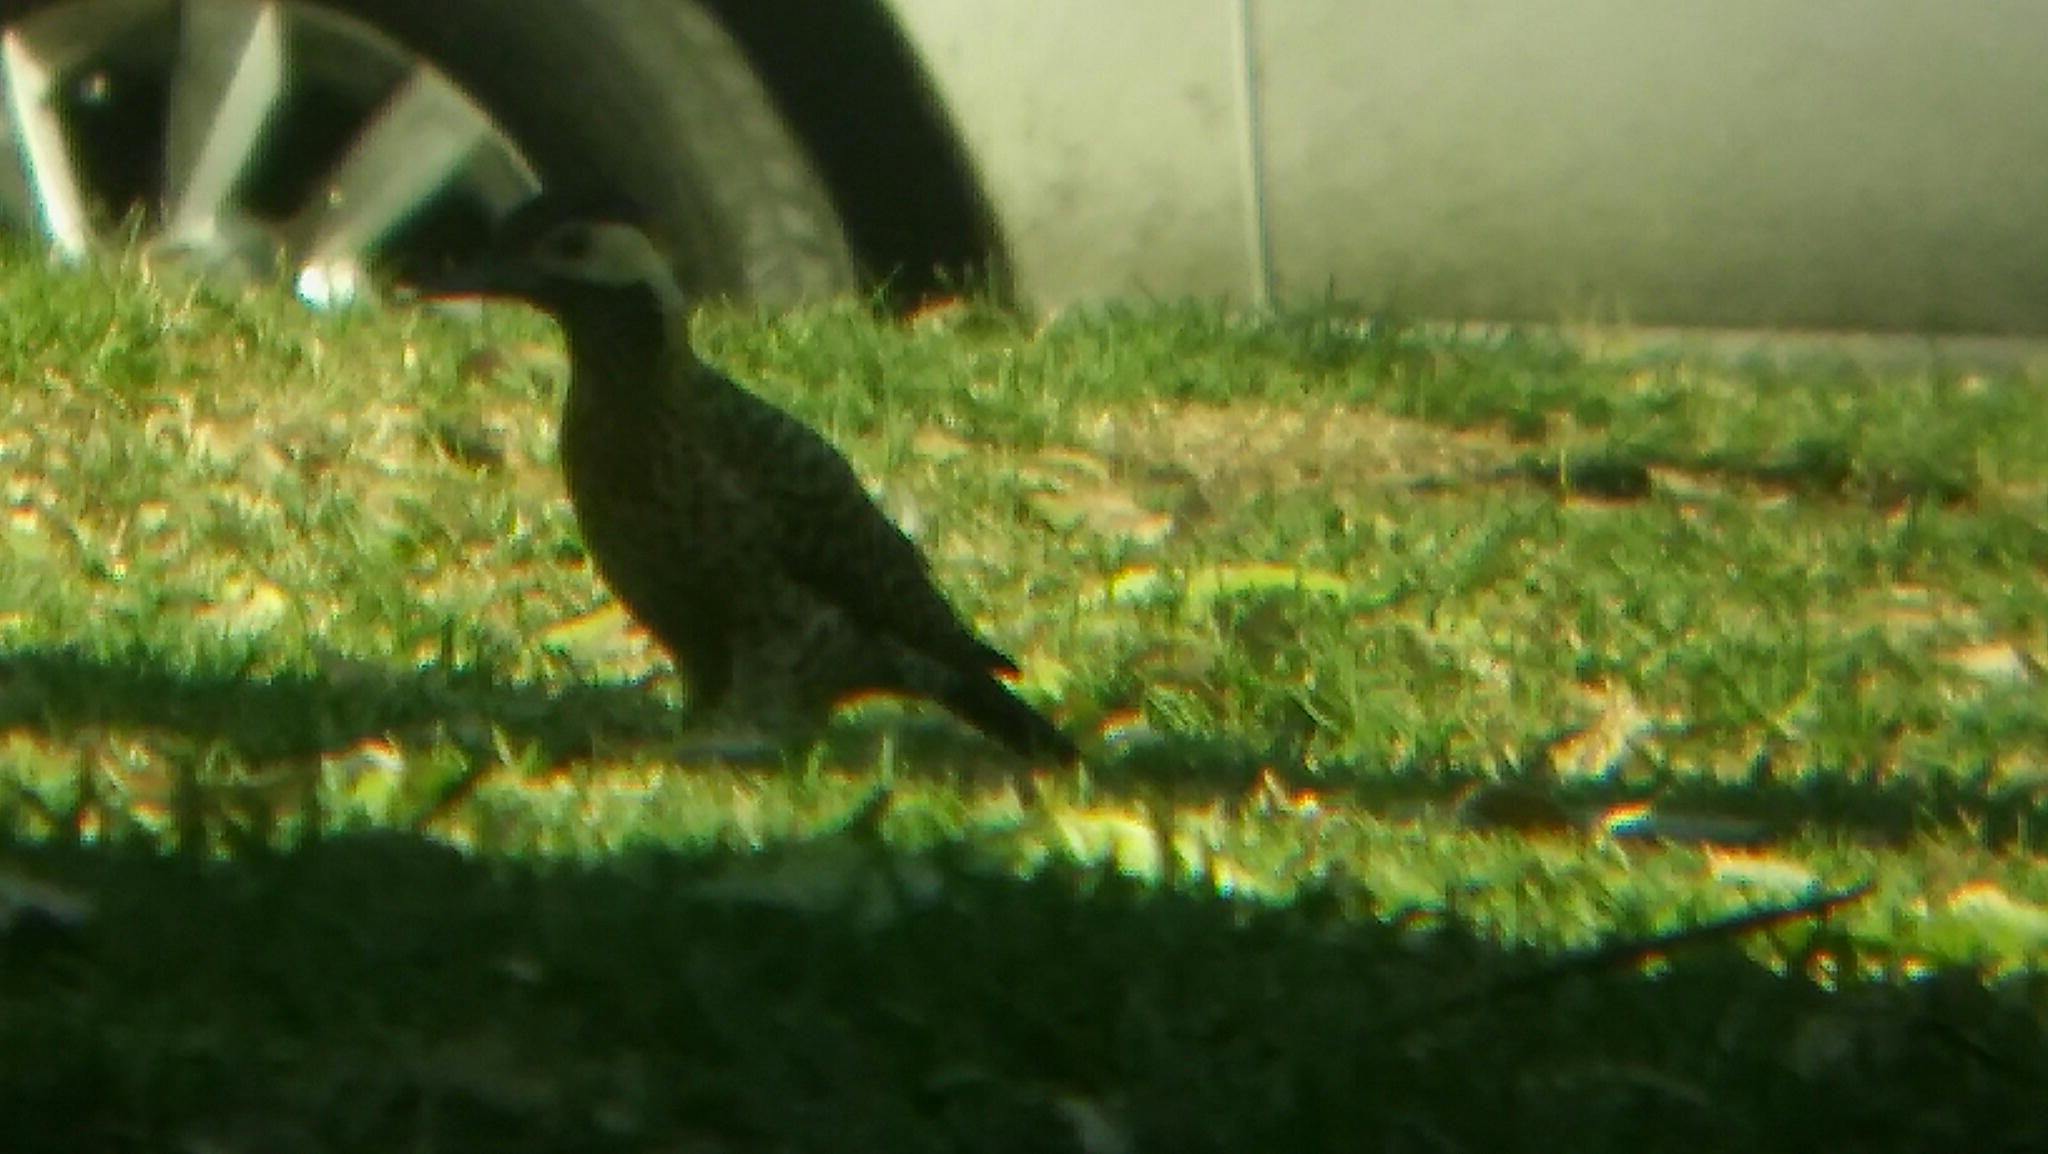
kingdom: Animalia
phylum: Chordata
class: Aves
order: Piciformes
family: Picidae
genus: Colaptes
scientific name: Colaptes melanochloros
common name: Green-barred woodpecker
